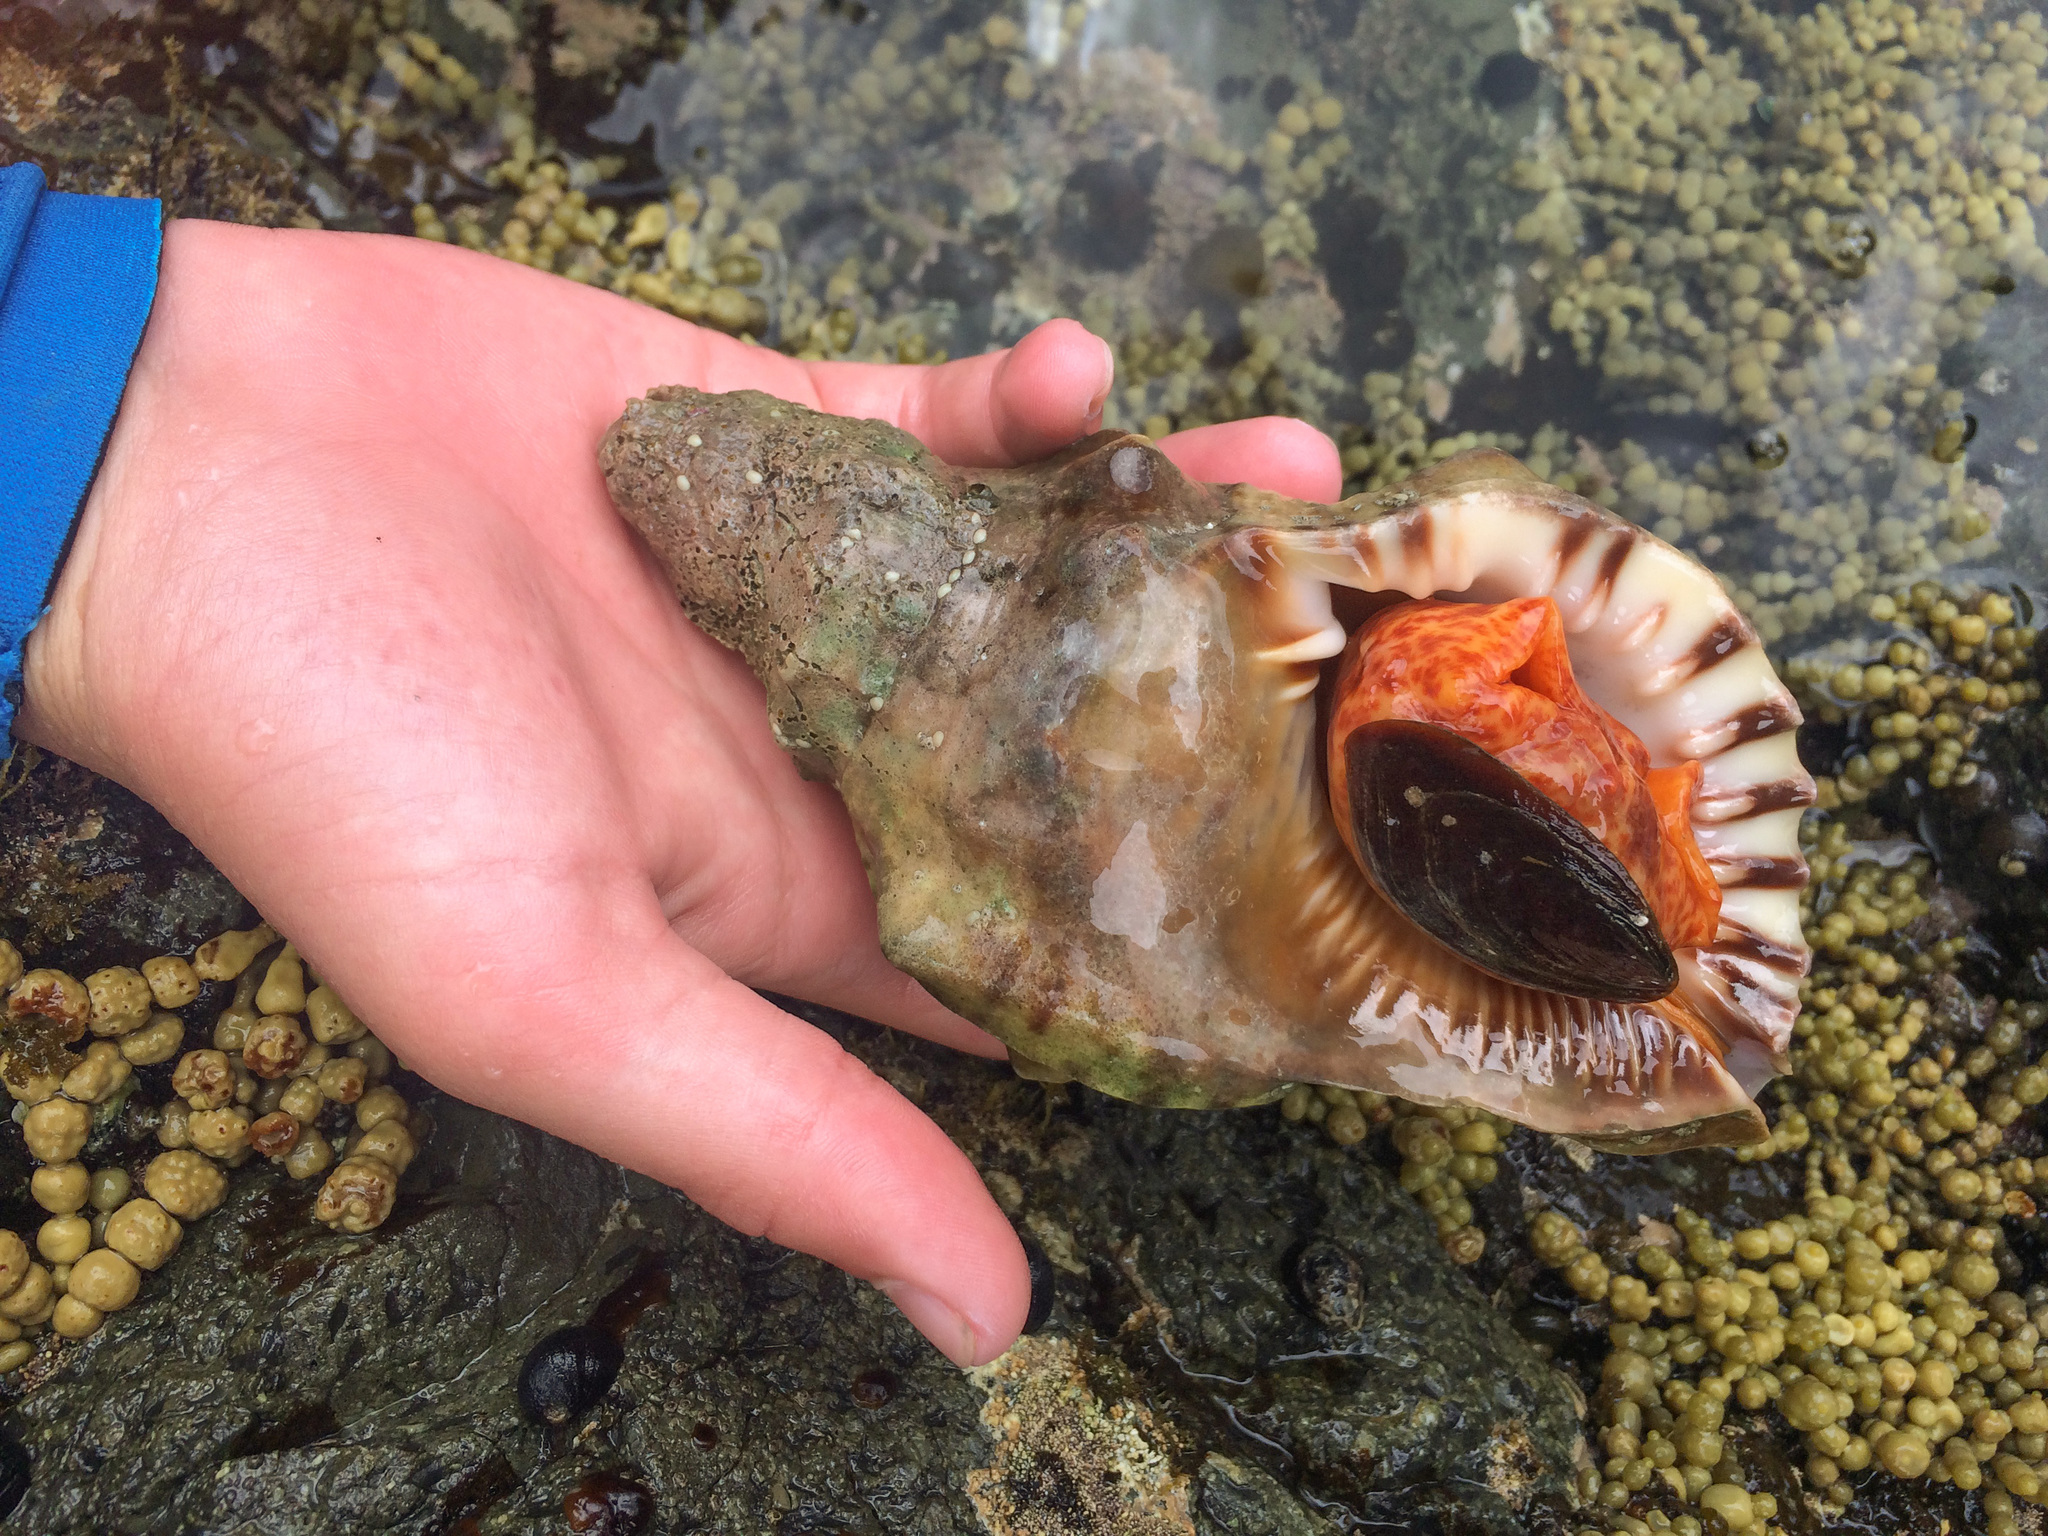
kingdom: Animalia
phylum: Mollusca
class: Gastropoda
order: Littorinimorpha
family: Charoniidae
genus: Charonia
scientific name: Charonia lampas
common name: Knobbed triton
